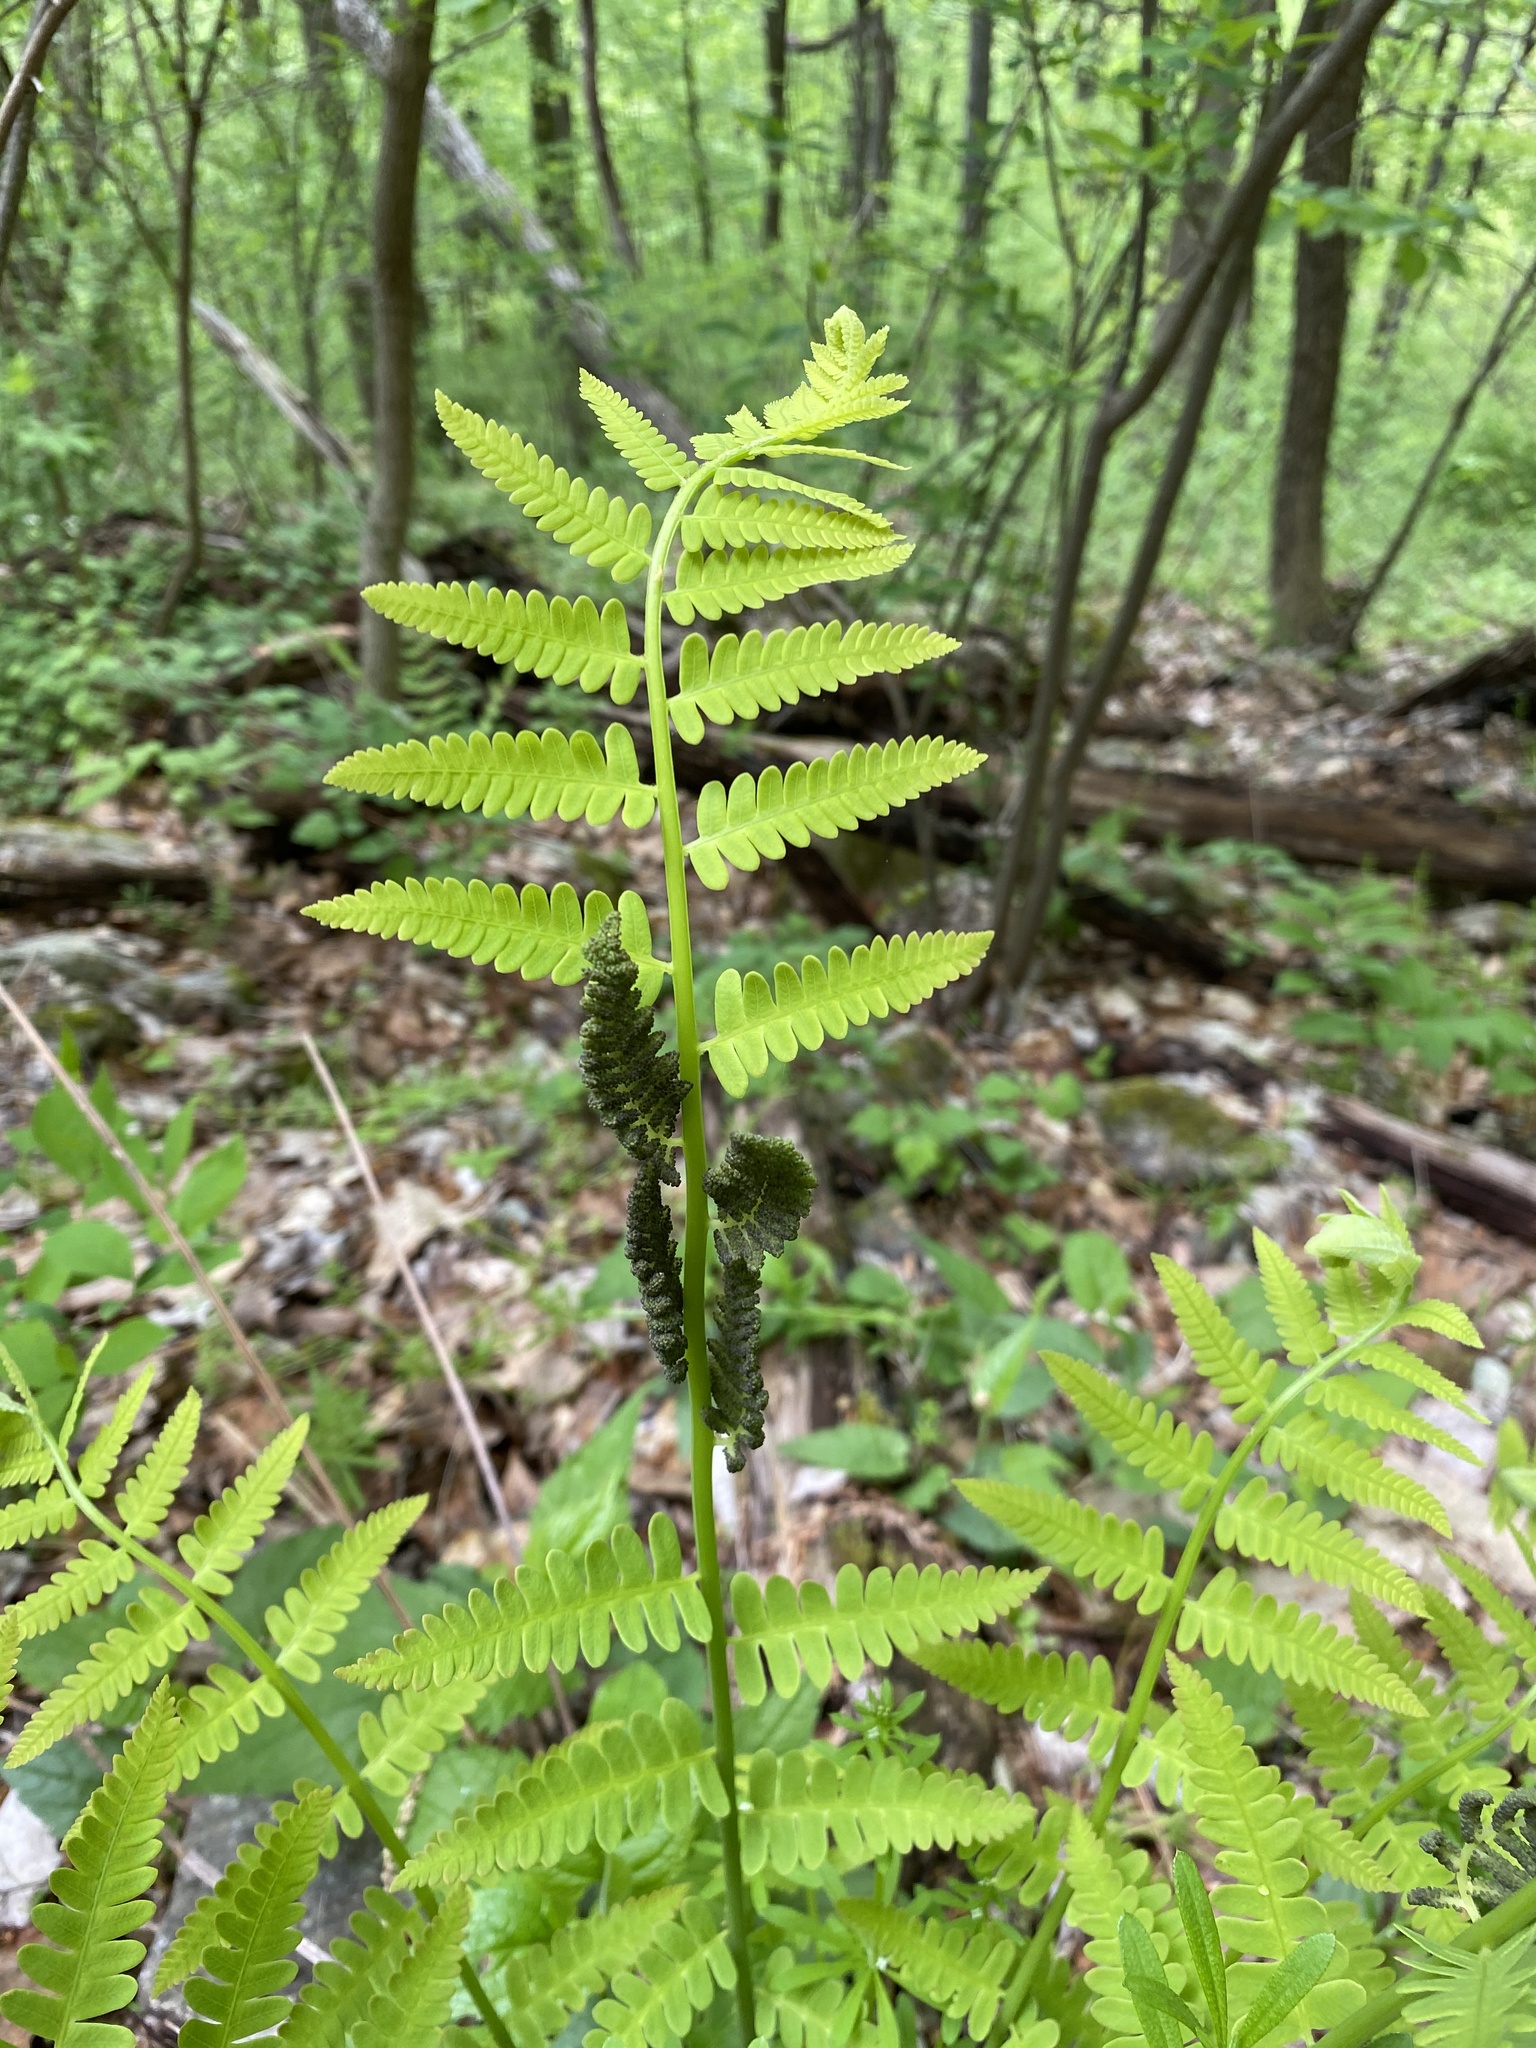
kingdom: Plantae
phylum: Tracheophyta
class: Polypodiopsida
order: Osmundales
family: Osmundaceae
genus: Claytosmunda
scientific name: Claytosmunda claytoniana
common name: Clayton's fern
